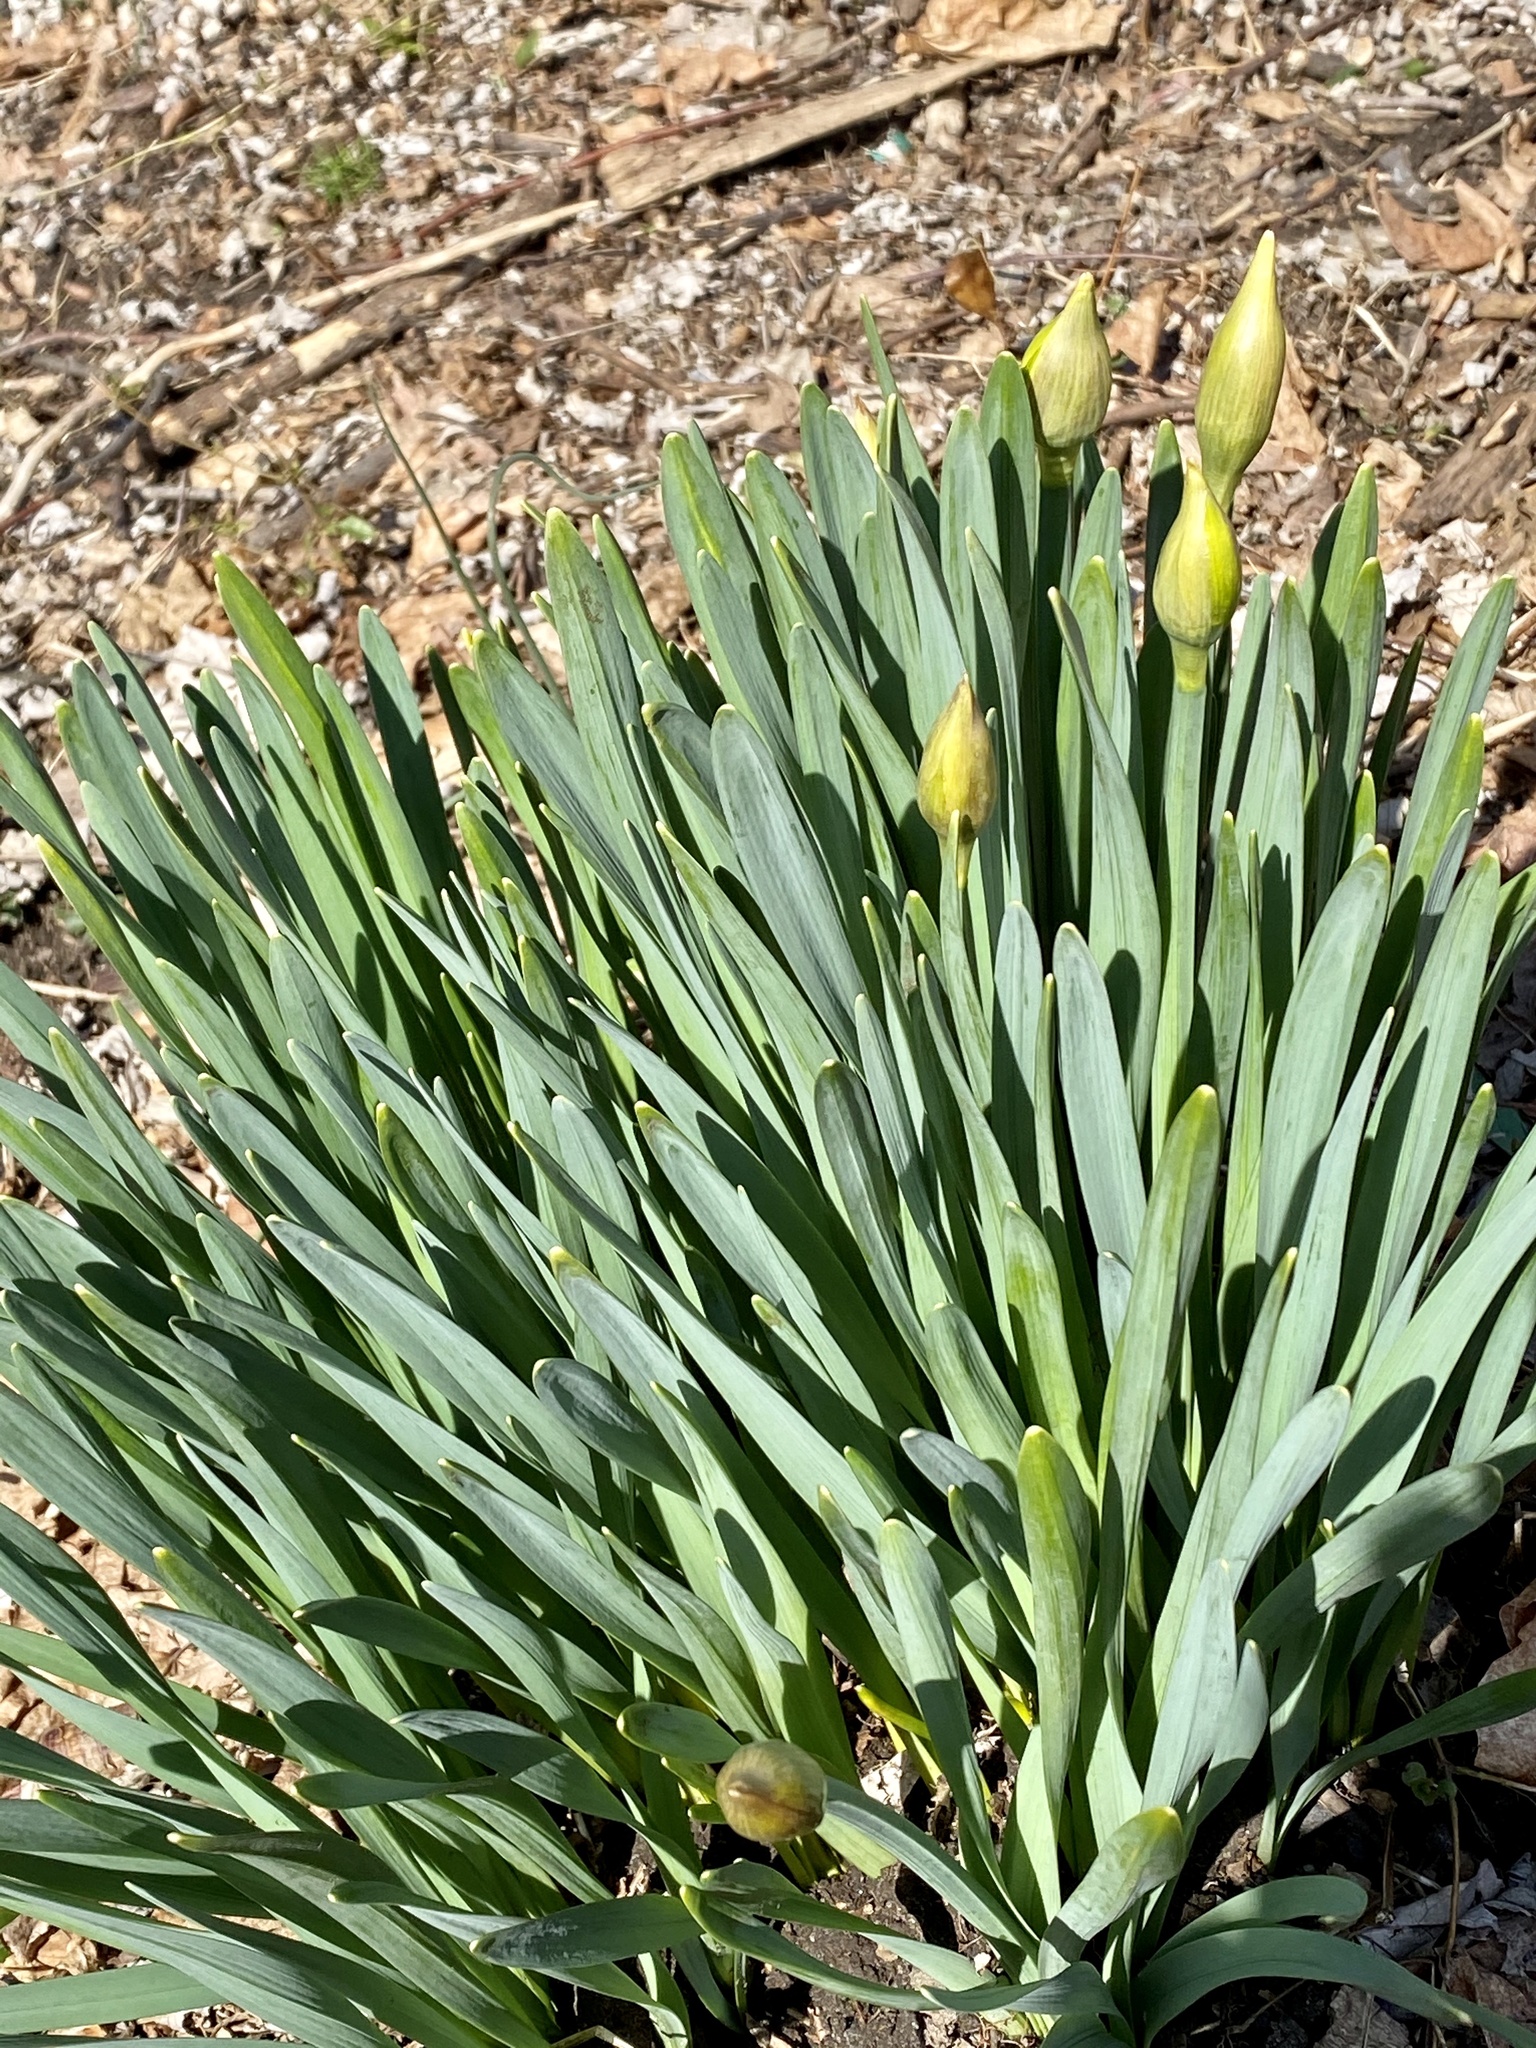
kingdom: Plantae
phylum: Tracheophyta
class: Liliopsida
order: Asparagales
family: Amaryllidaceae
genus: Narcissus
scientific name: Narcissus
